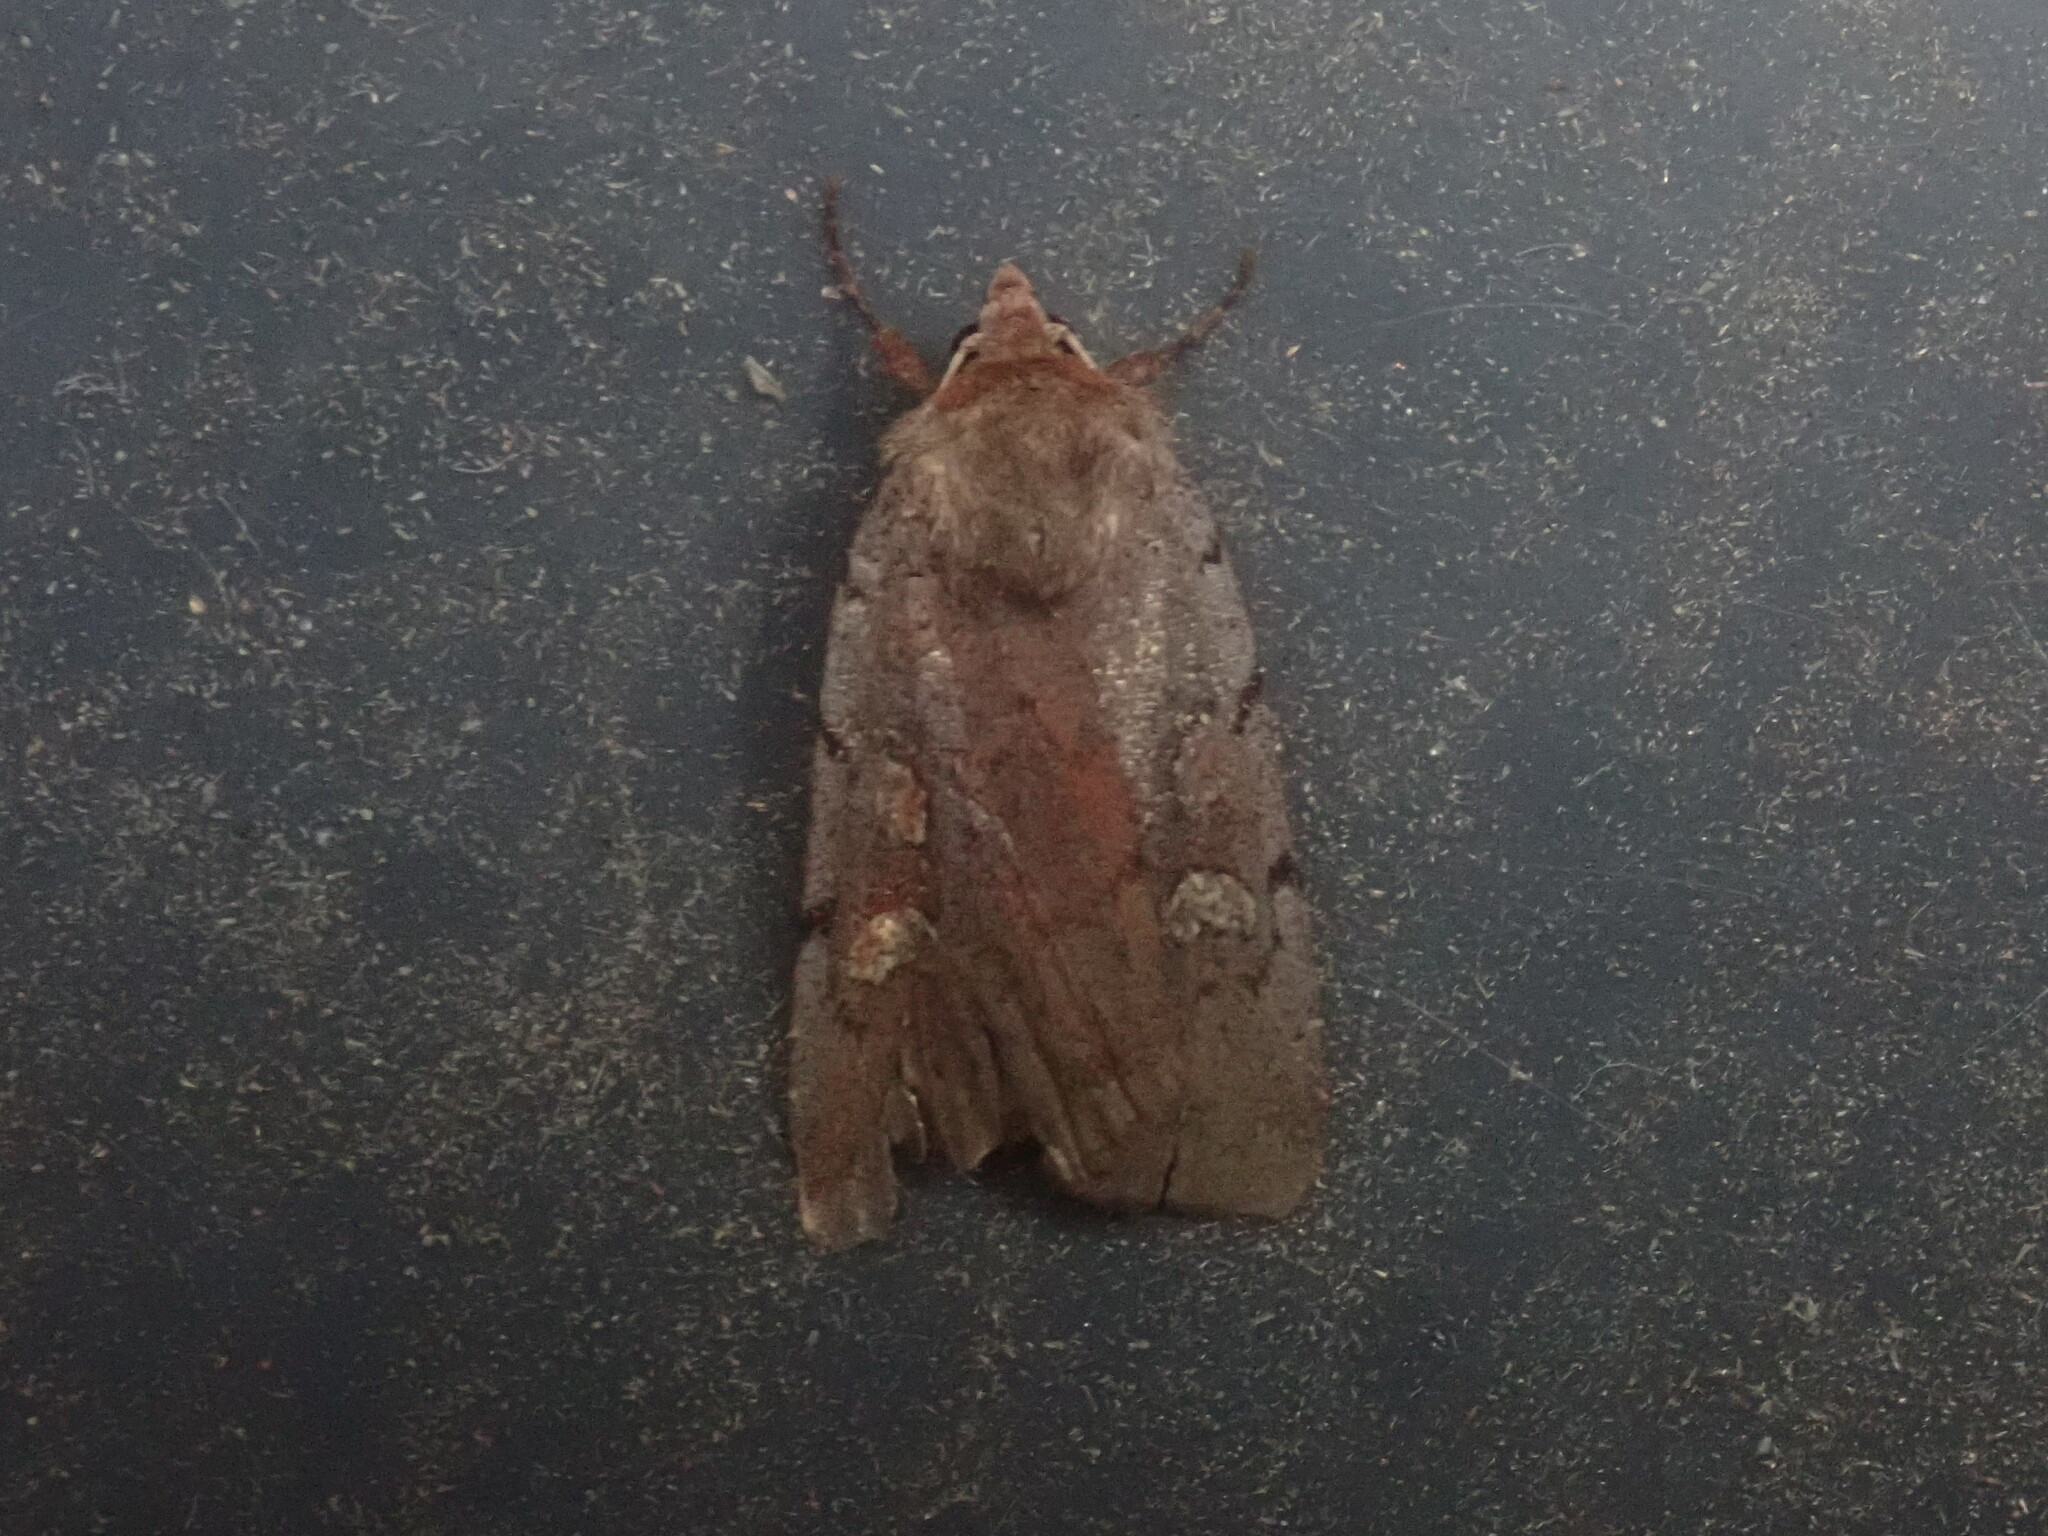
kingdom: Animalia
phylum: Arthropoda
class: Insecta
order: Lepidoptera
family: Noctuidae
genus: Xestia
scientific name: Xestia dilucida
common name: Dull reddish dart
